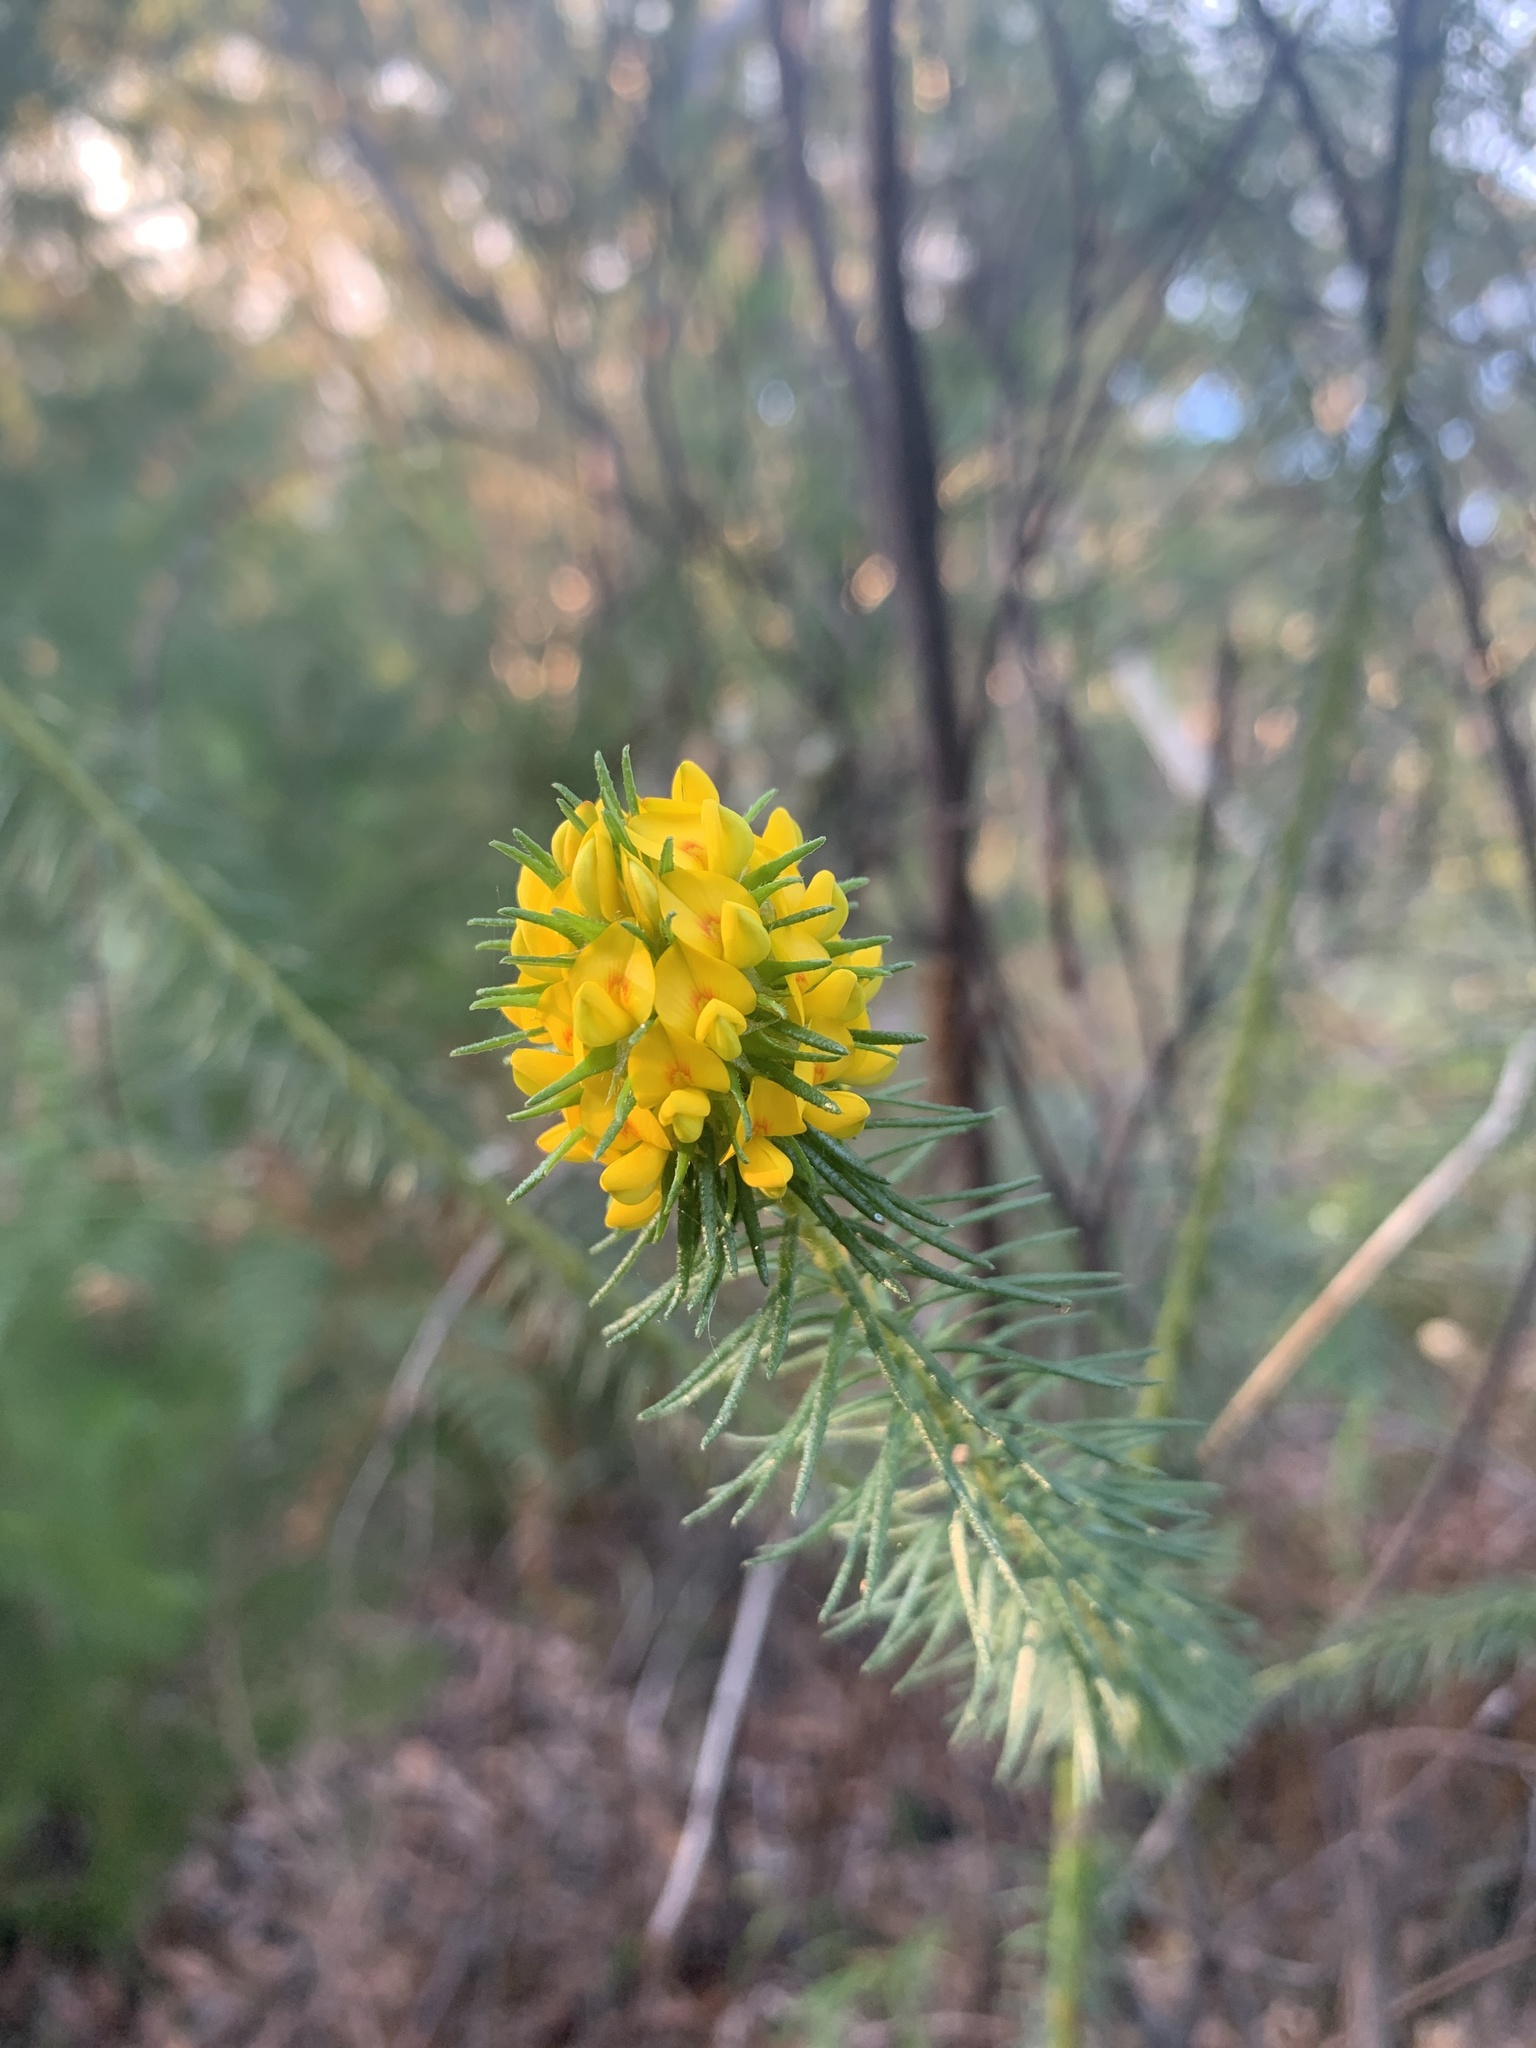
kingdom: Plantae
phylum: Tracheophyta
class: Magnoliopsida
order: Fabales
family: Fabaceae
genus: Phyllota
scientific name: Phyllota phylicoides
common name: Heath phyllota
